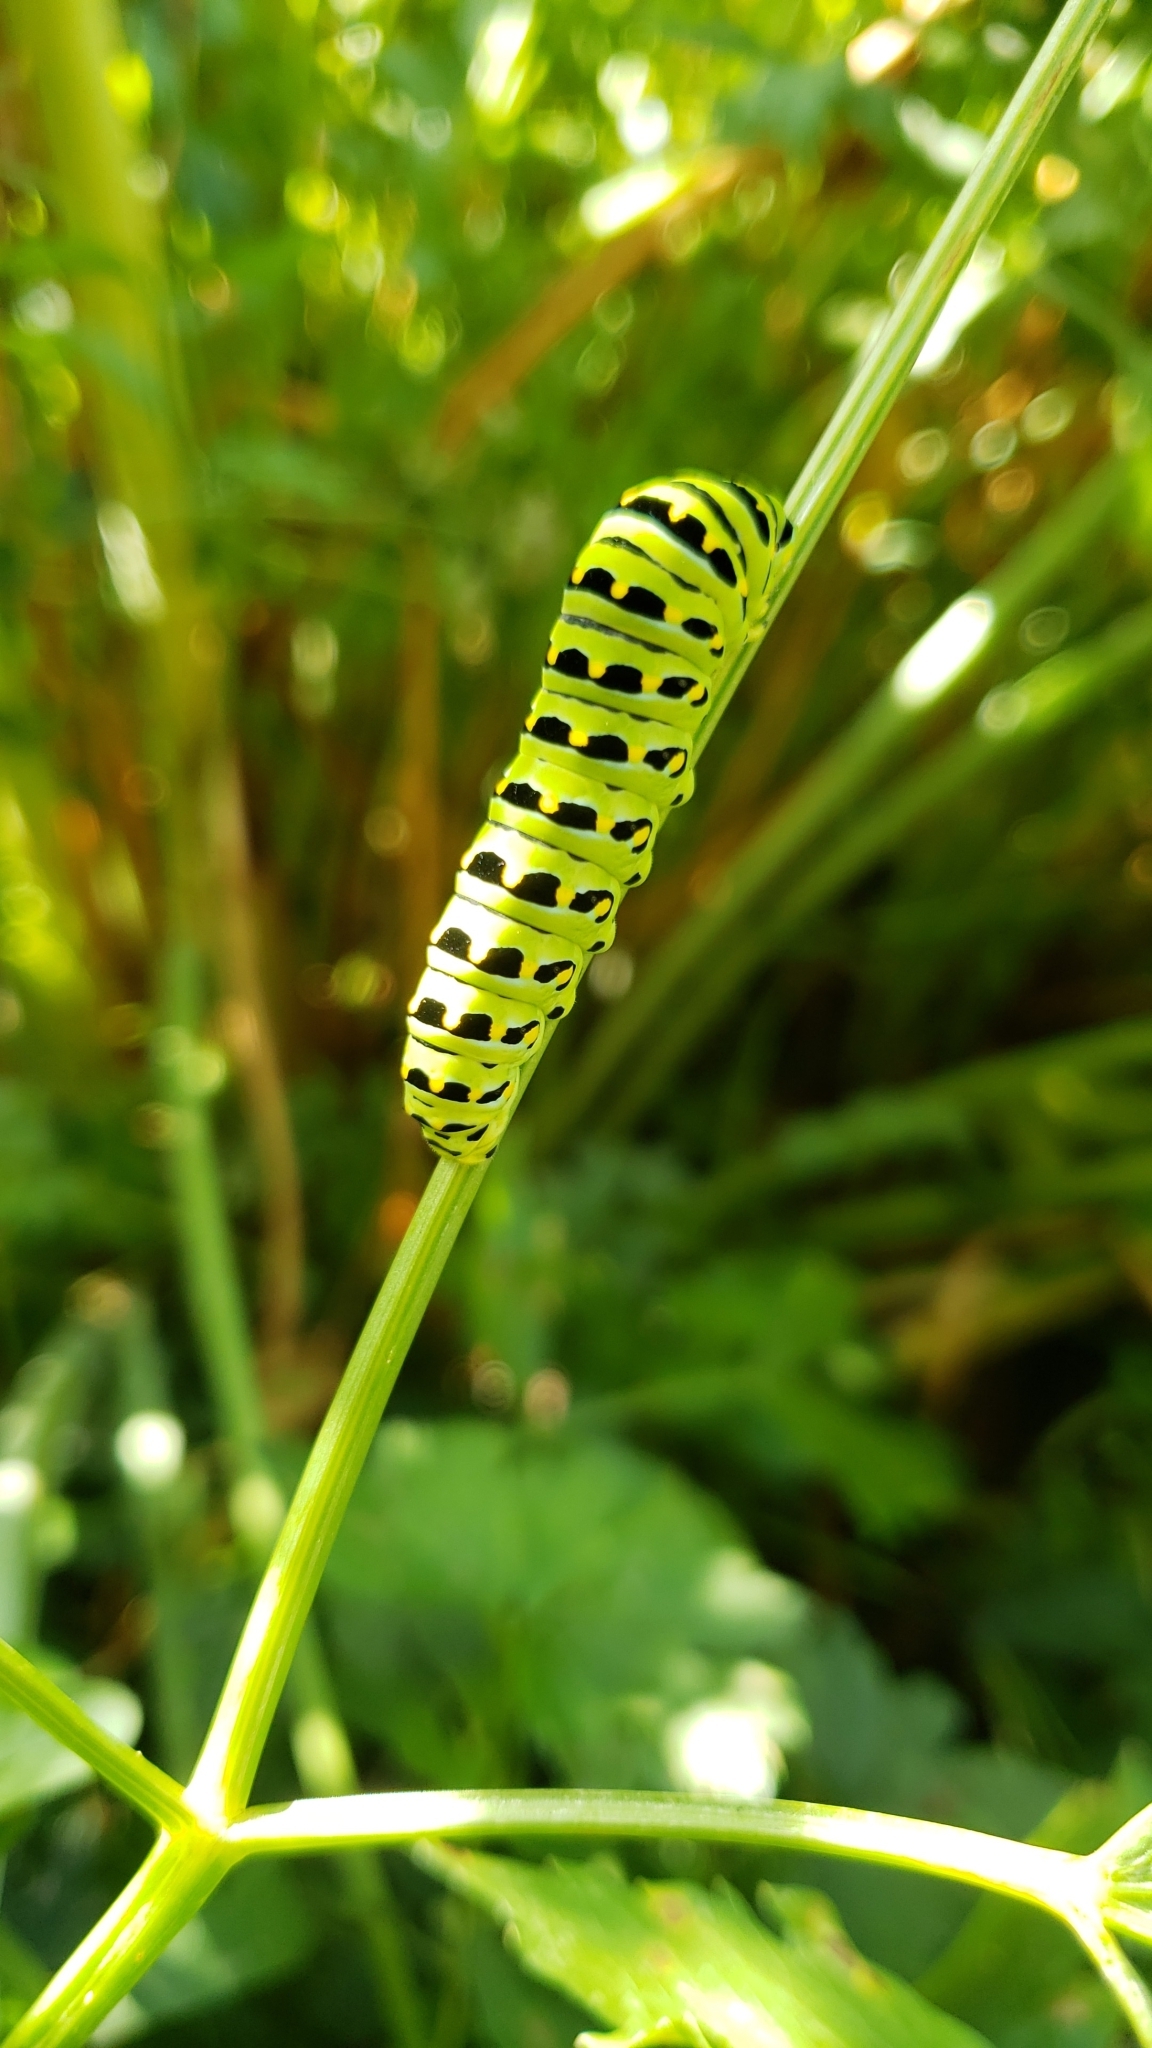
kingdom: Animalia
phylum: Arthropoda
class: Insecta
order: Lepidoptera
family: Papilionidae
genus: Papilio
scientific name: Papilio zelicaon
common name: Anise swallowtail
